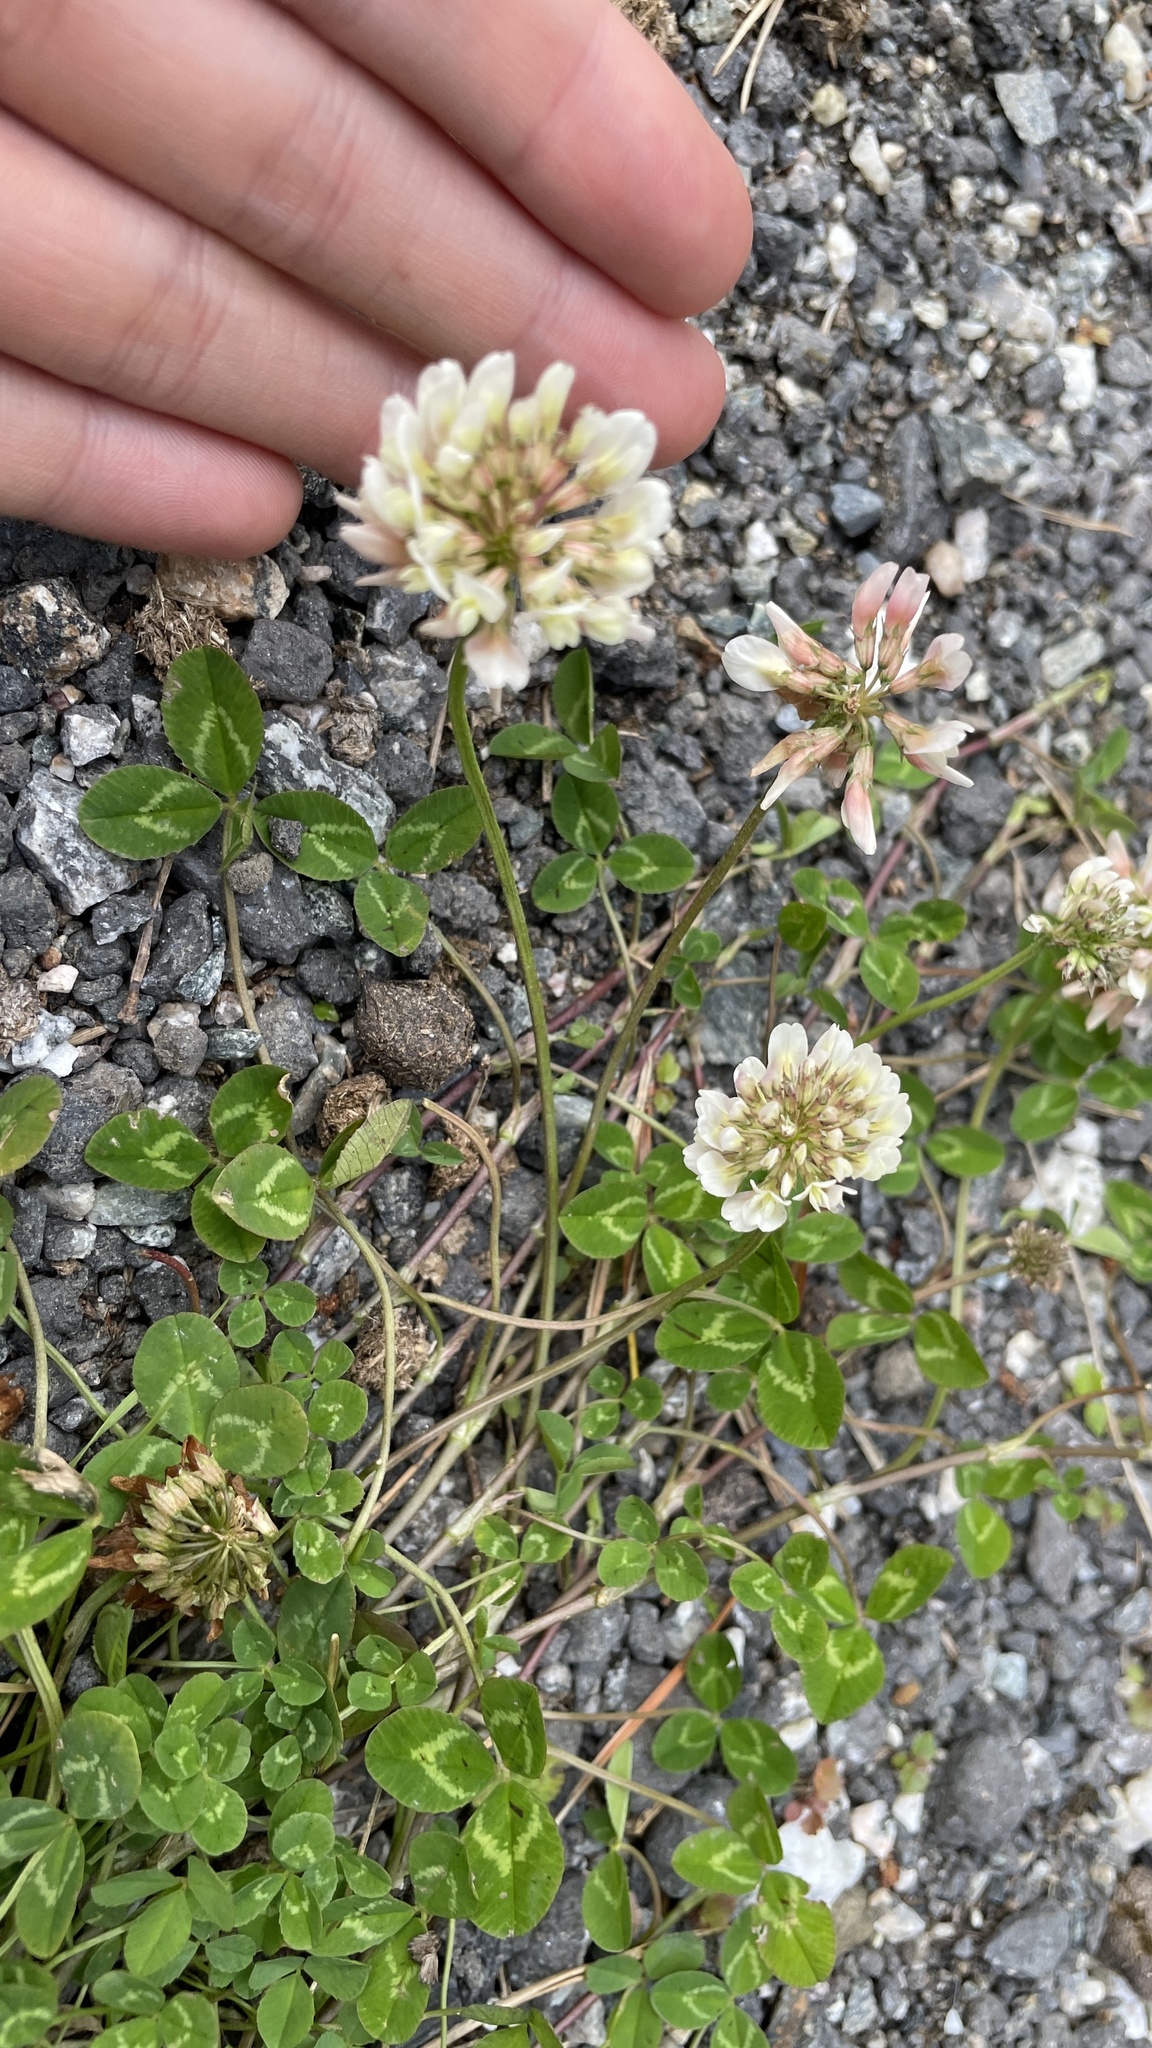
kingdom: Plantae
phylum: Tracheophyta
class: Magnoliopsida
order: Fabales
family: Fabaceae
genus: Trifolium
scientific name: Trifolium repens
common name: White clover
